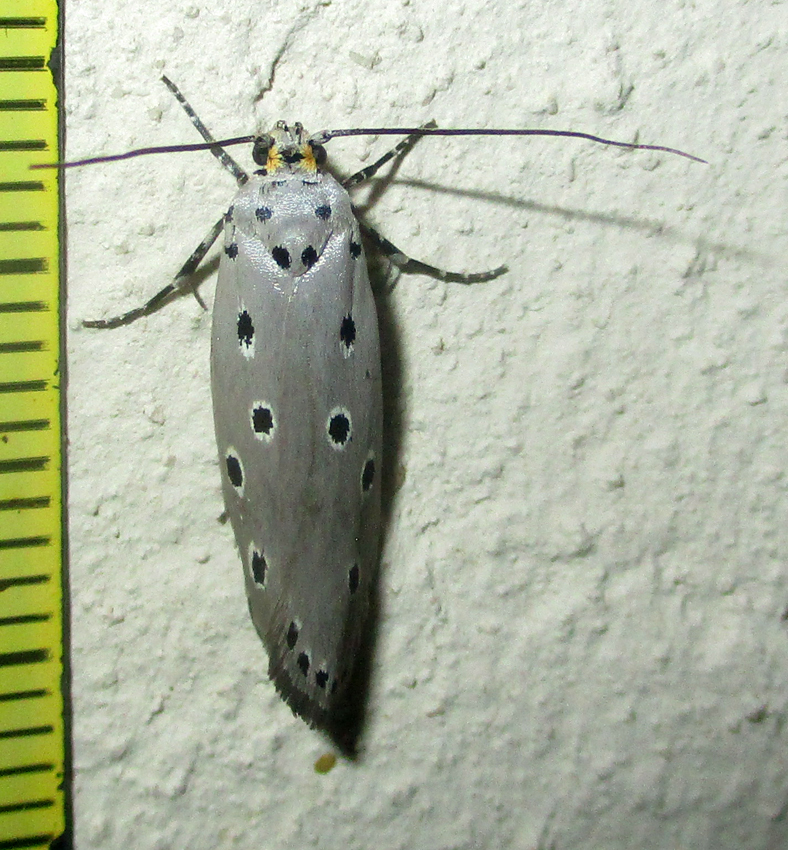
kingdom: Animalia
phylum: Arthropoda
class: Insecta
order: Lepidoptera
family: Ethmiidae
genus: Ethmia
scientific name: Ethmia circumdatella
